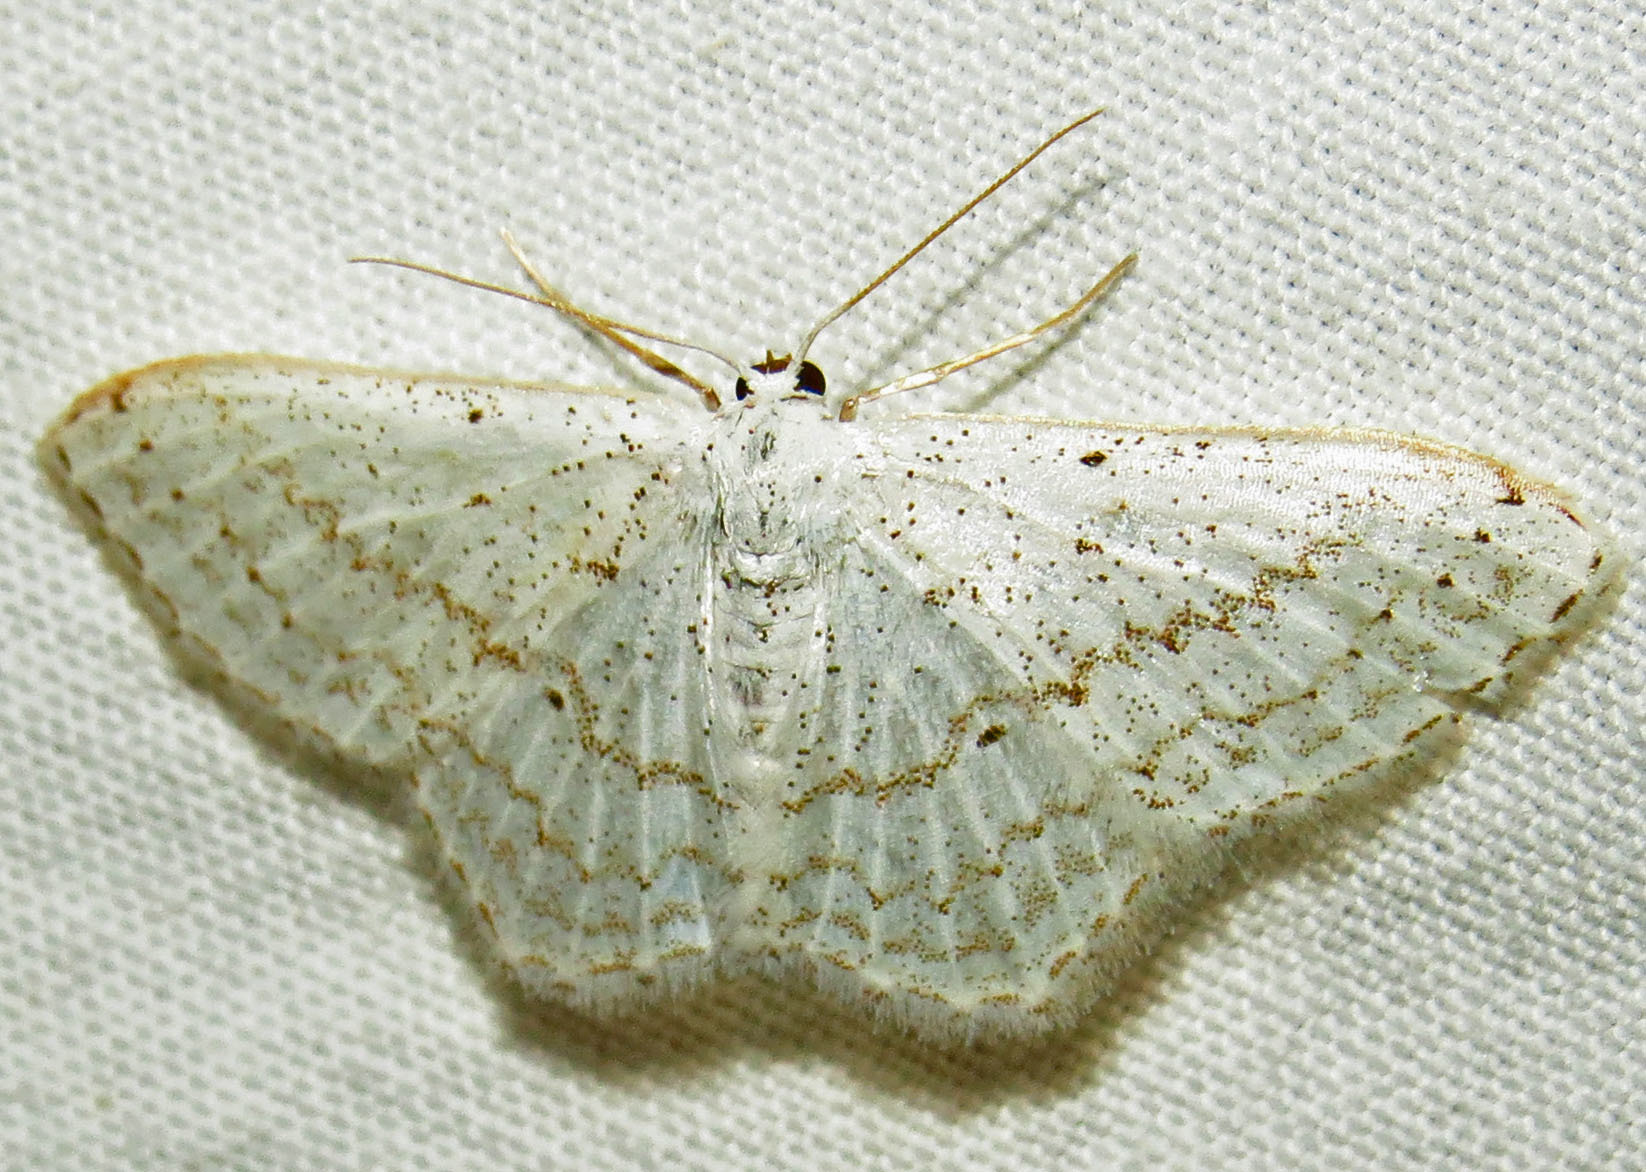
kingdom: Animalia
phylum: Arthropoda
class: Insecta
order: Lepidoptera
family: Geometridae
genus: Idaea
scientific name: Idaea tacturata
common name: Dot-lined wave
